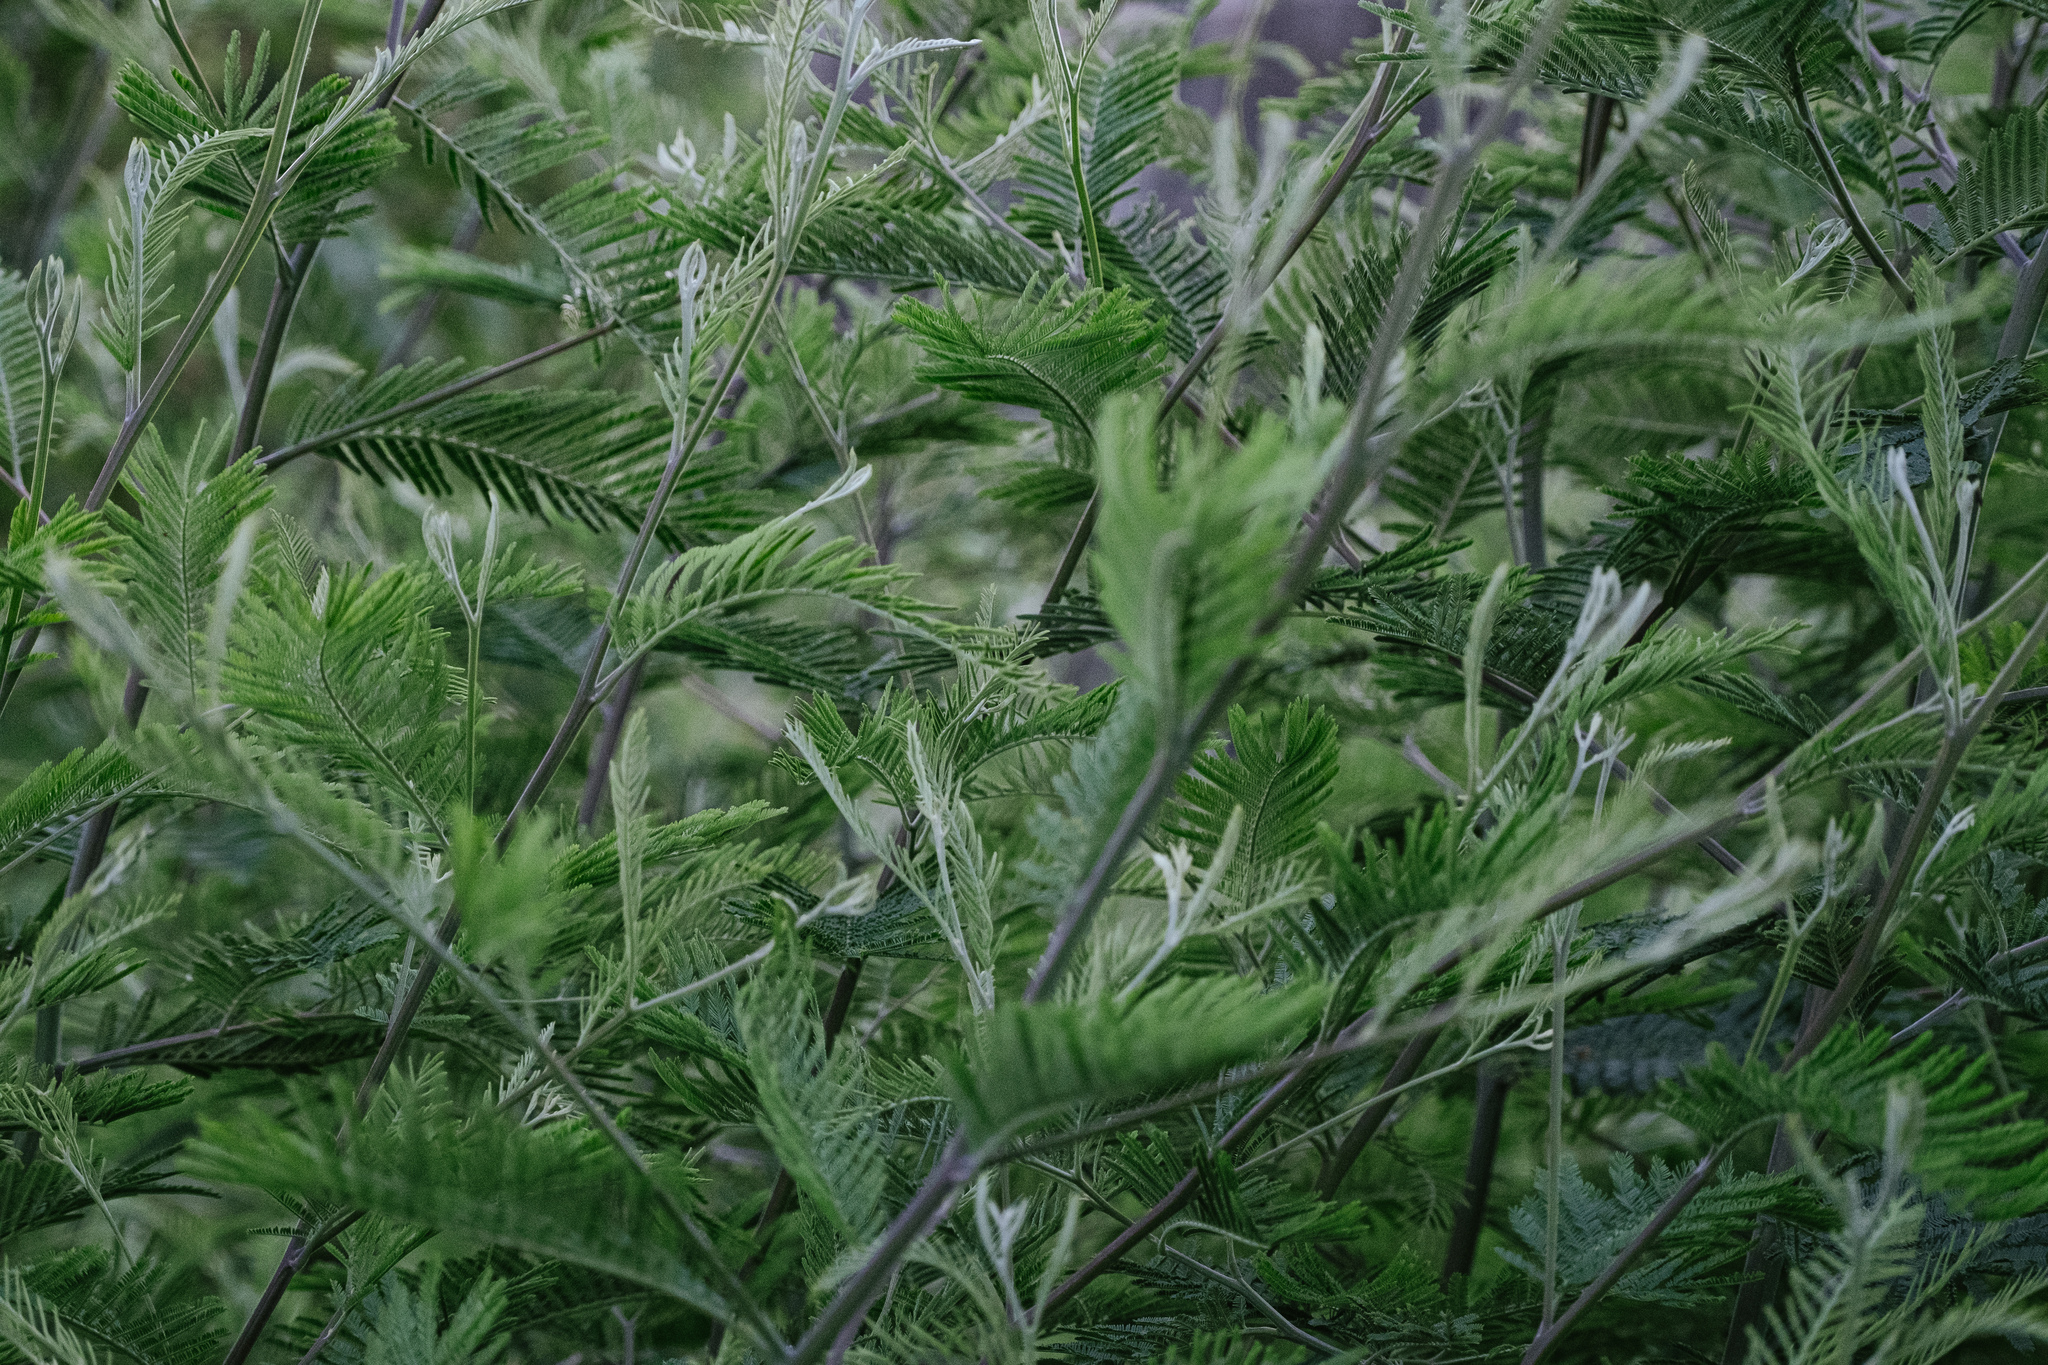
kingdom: Plantae
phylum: Tracheophyta
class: Magnoliopsida
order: Fabales
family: Fabaceae
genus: Acacia
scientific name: Acacia dealbata
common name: Silver wattle
